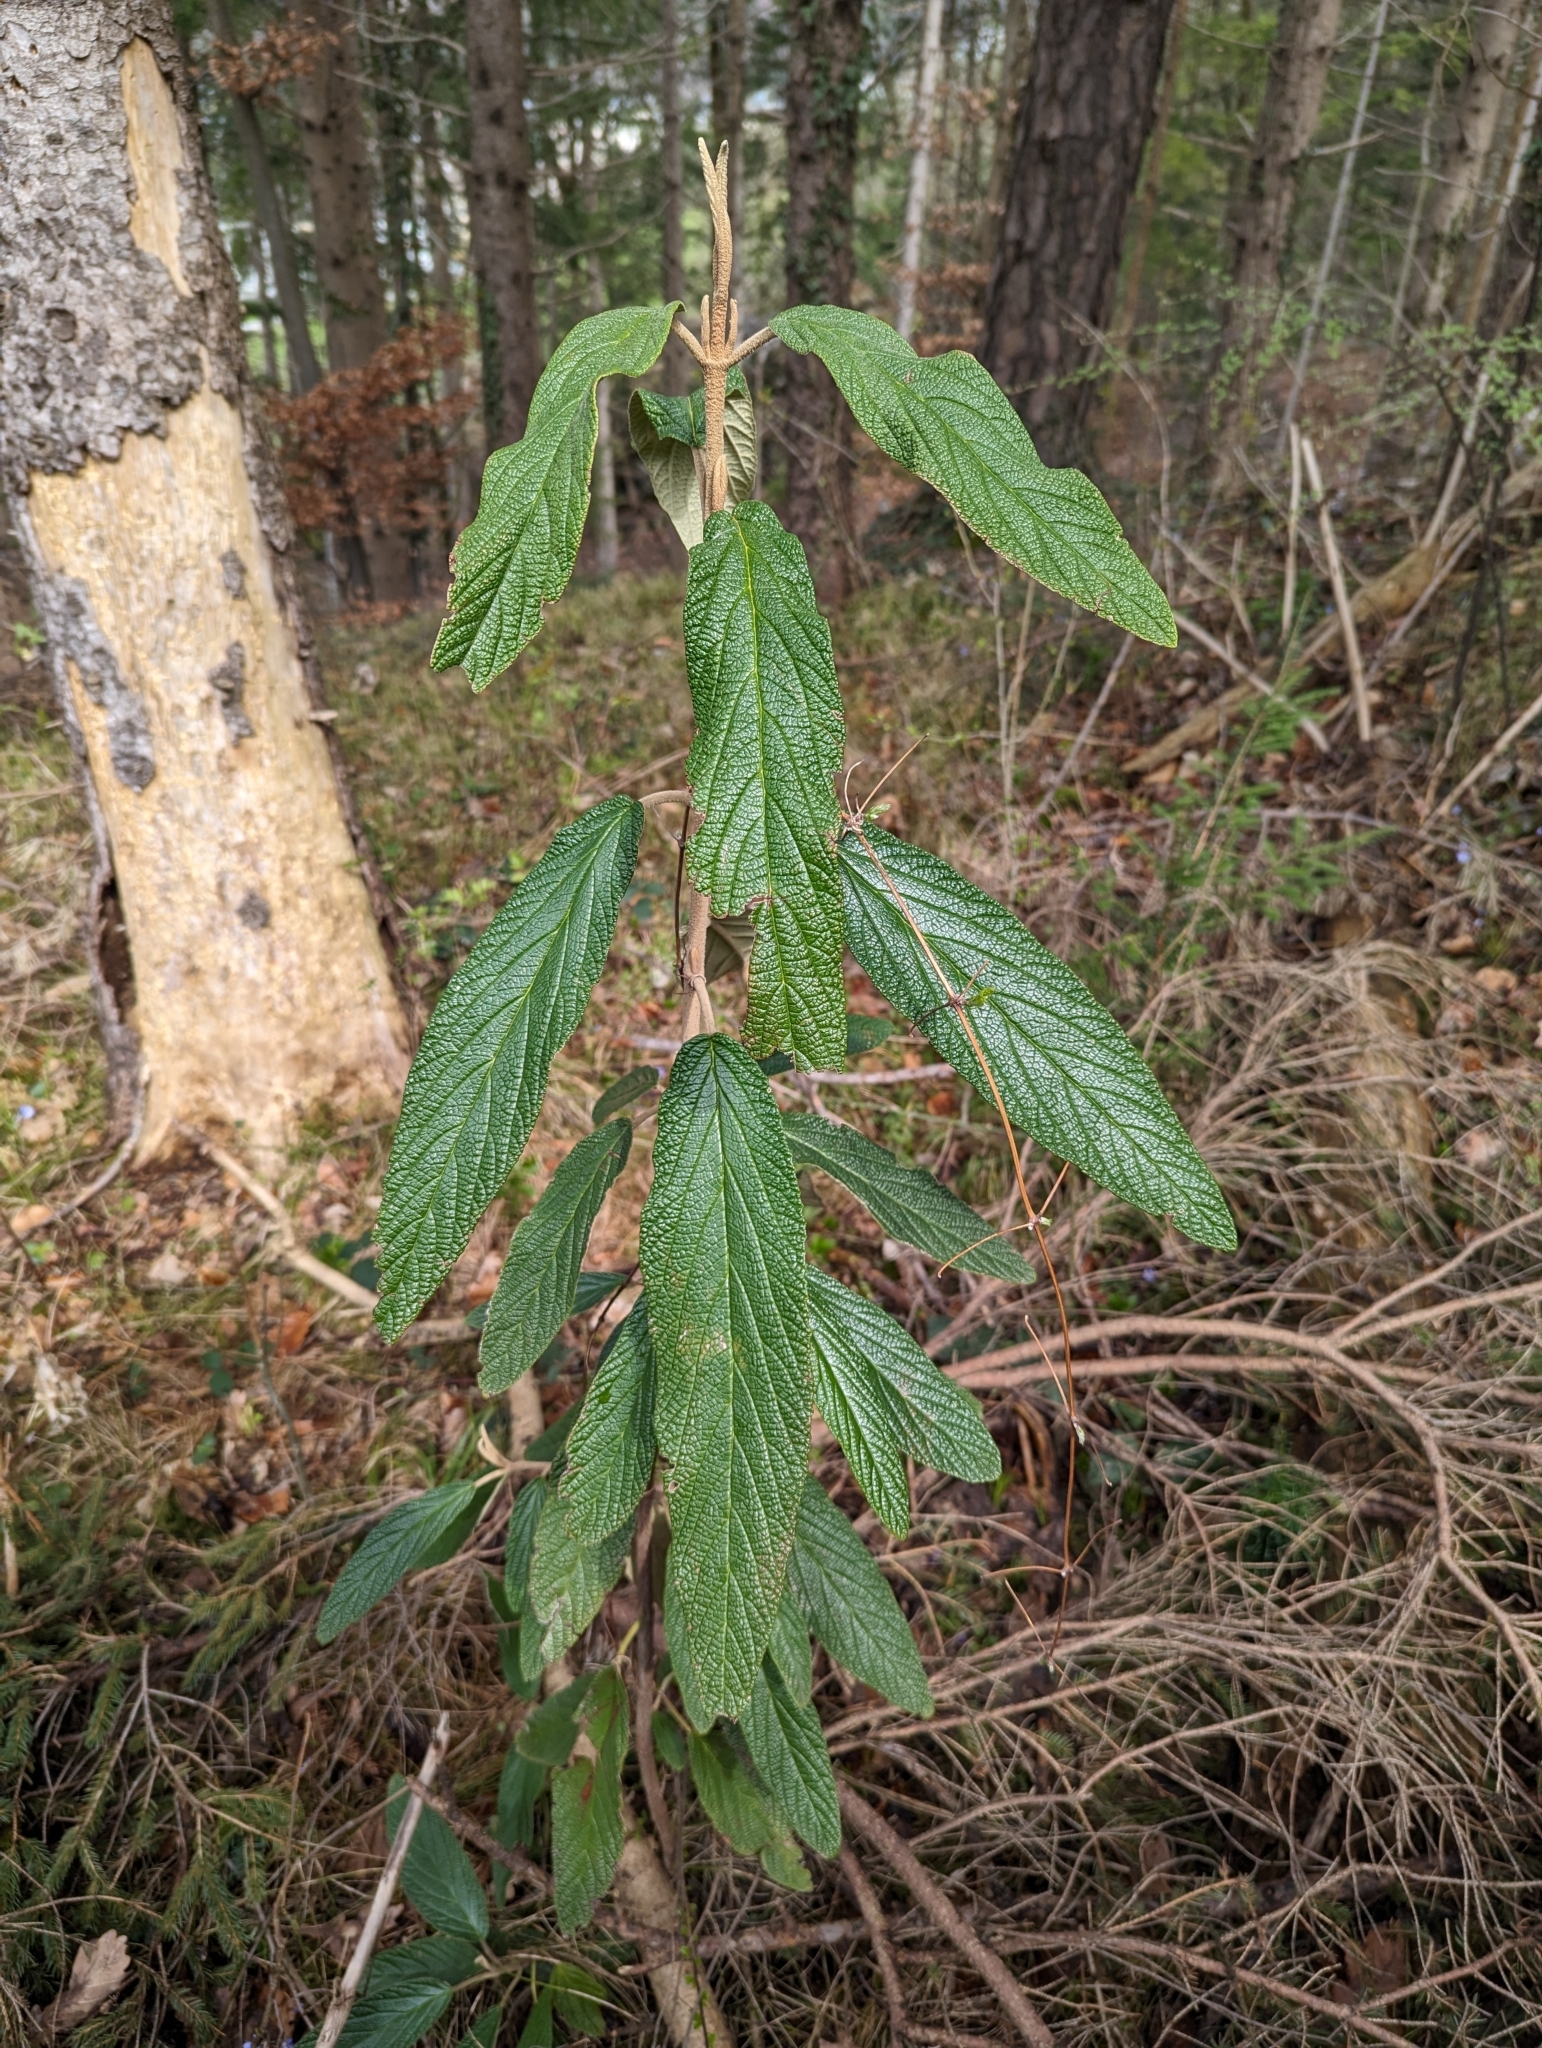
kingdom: Plantae
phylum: Tracheophyta
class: Magnoliopsida
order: Dipsacales
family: Viburnaceae
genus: Viburnum
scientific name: Viburnum rhytidophyllum
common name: Wrinkled viburnum
